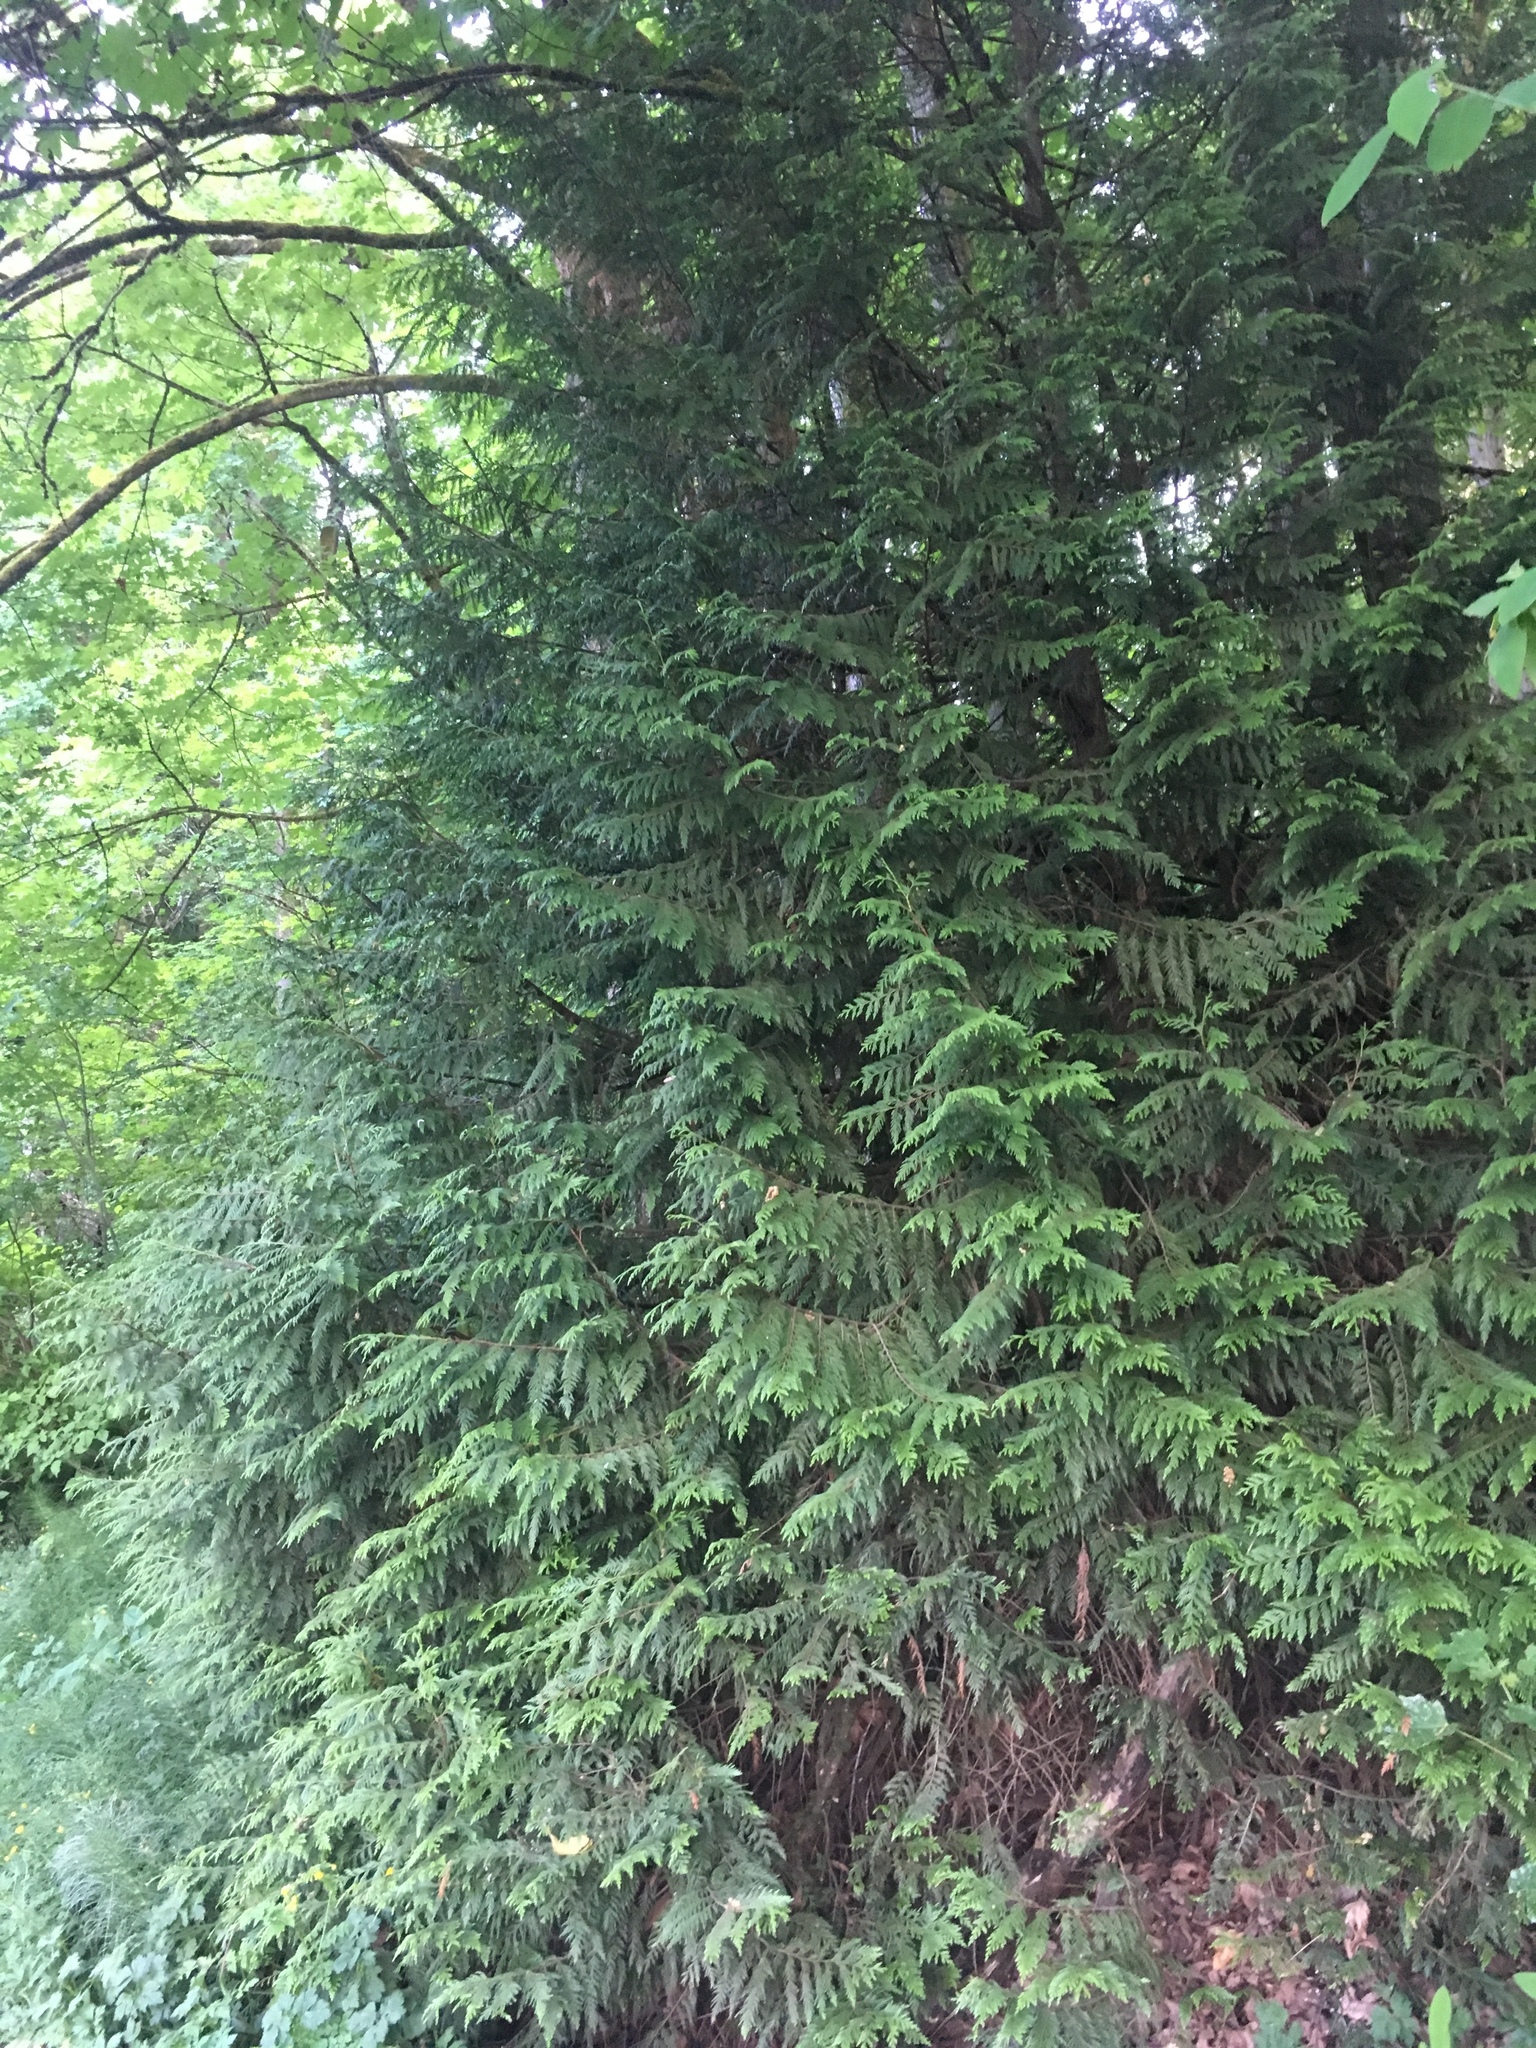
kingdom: Plantae
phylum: Tracheophyta
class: Pinopsida
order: Pinales
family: Cupressaceae
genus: Thuja
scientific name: Thuja plicata
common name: Western red-cedar
